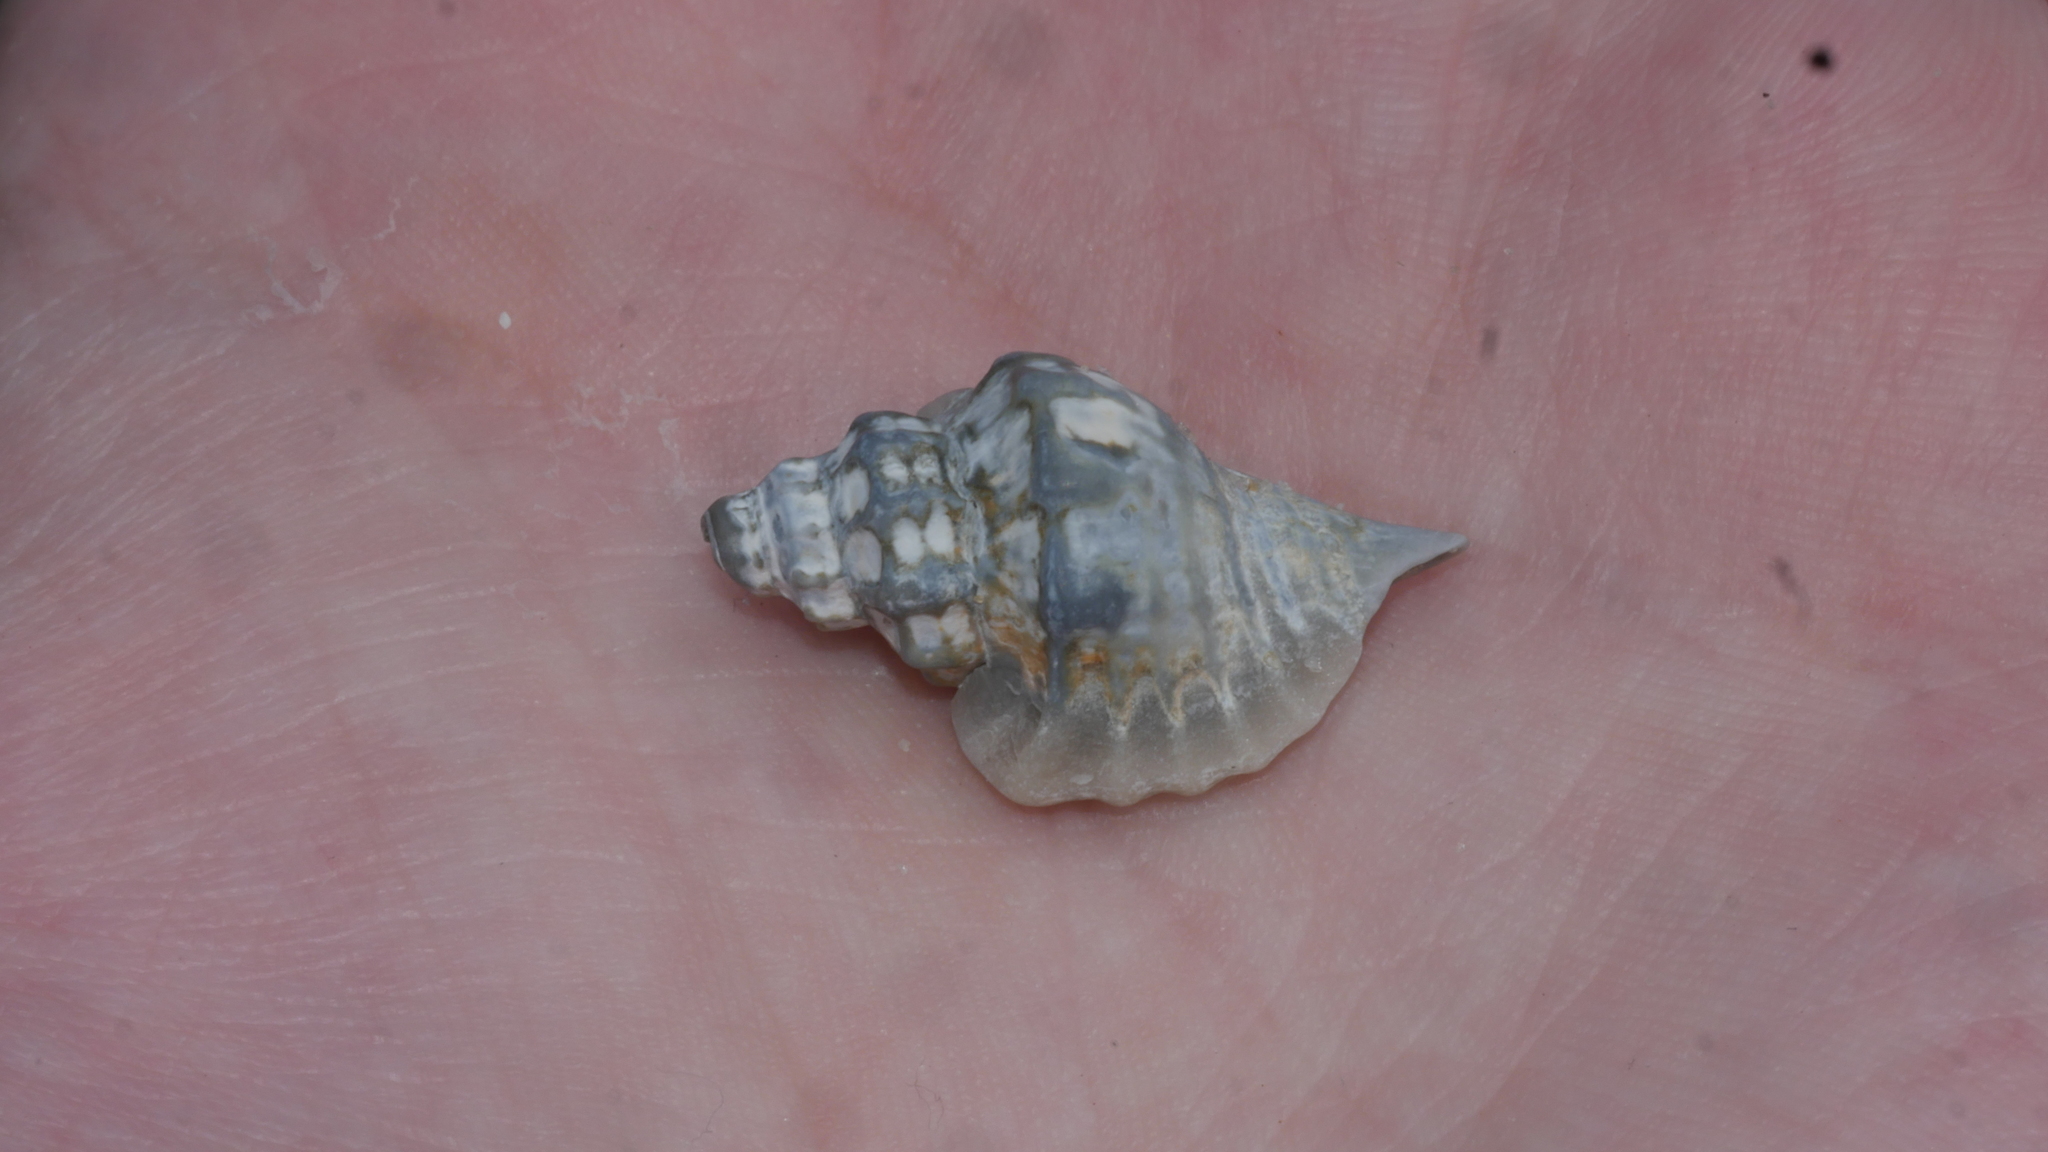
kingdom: Animalia
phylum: Mollusca
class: Gastropoda
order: Neogastropoda
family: Muricidae
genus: Eupleura
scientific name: Eupleura caudata
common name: Thick-lip drill
